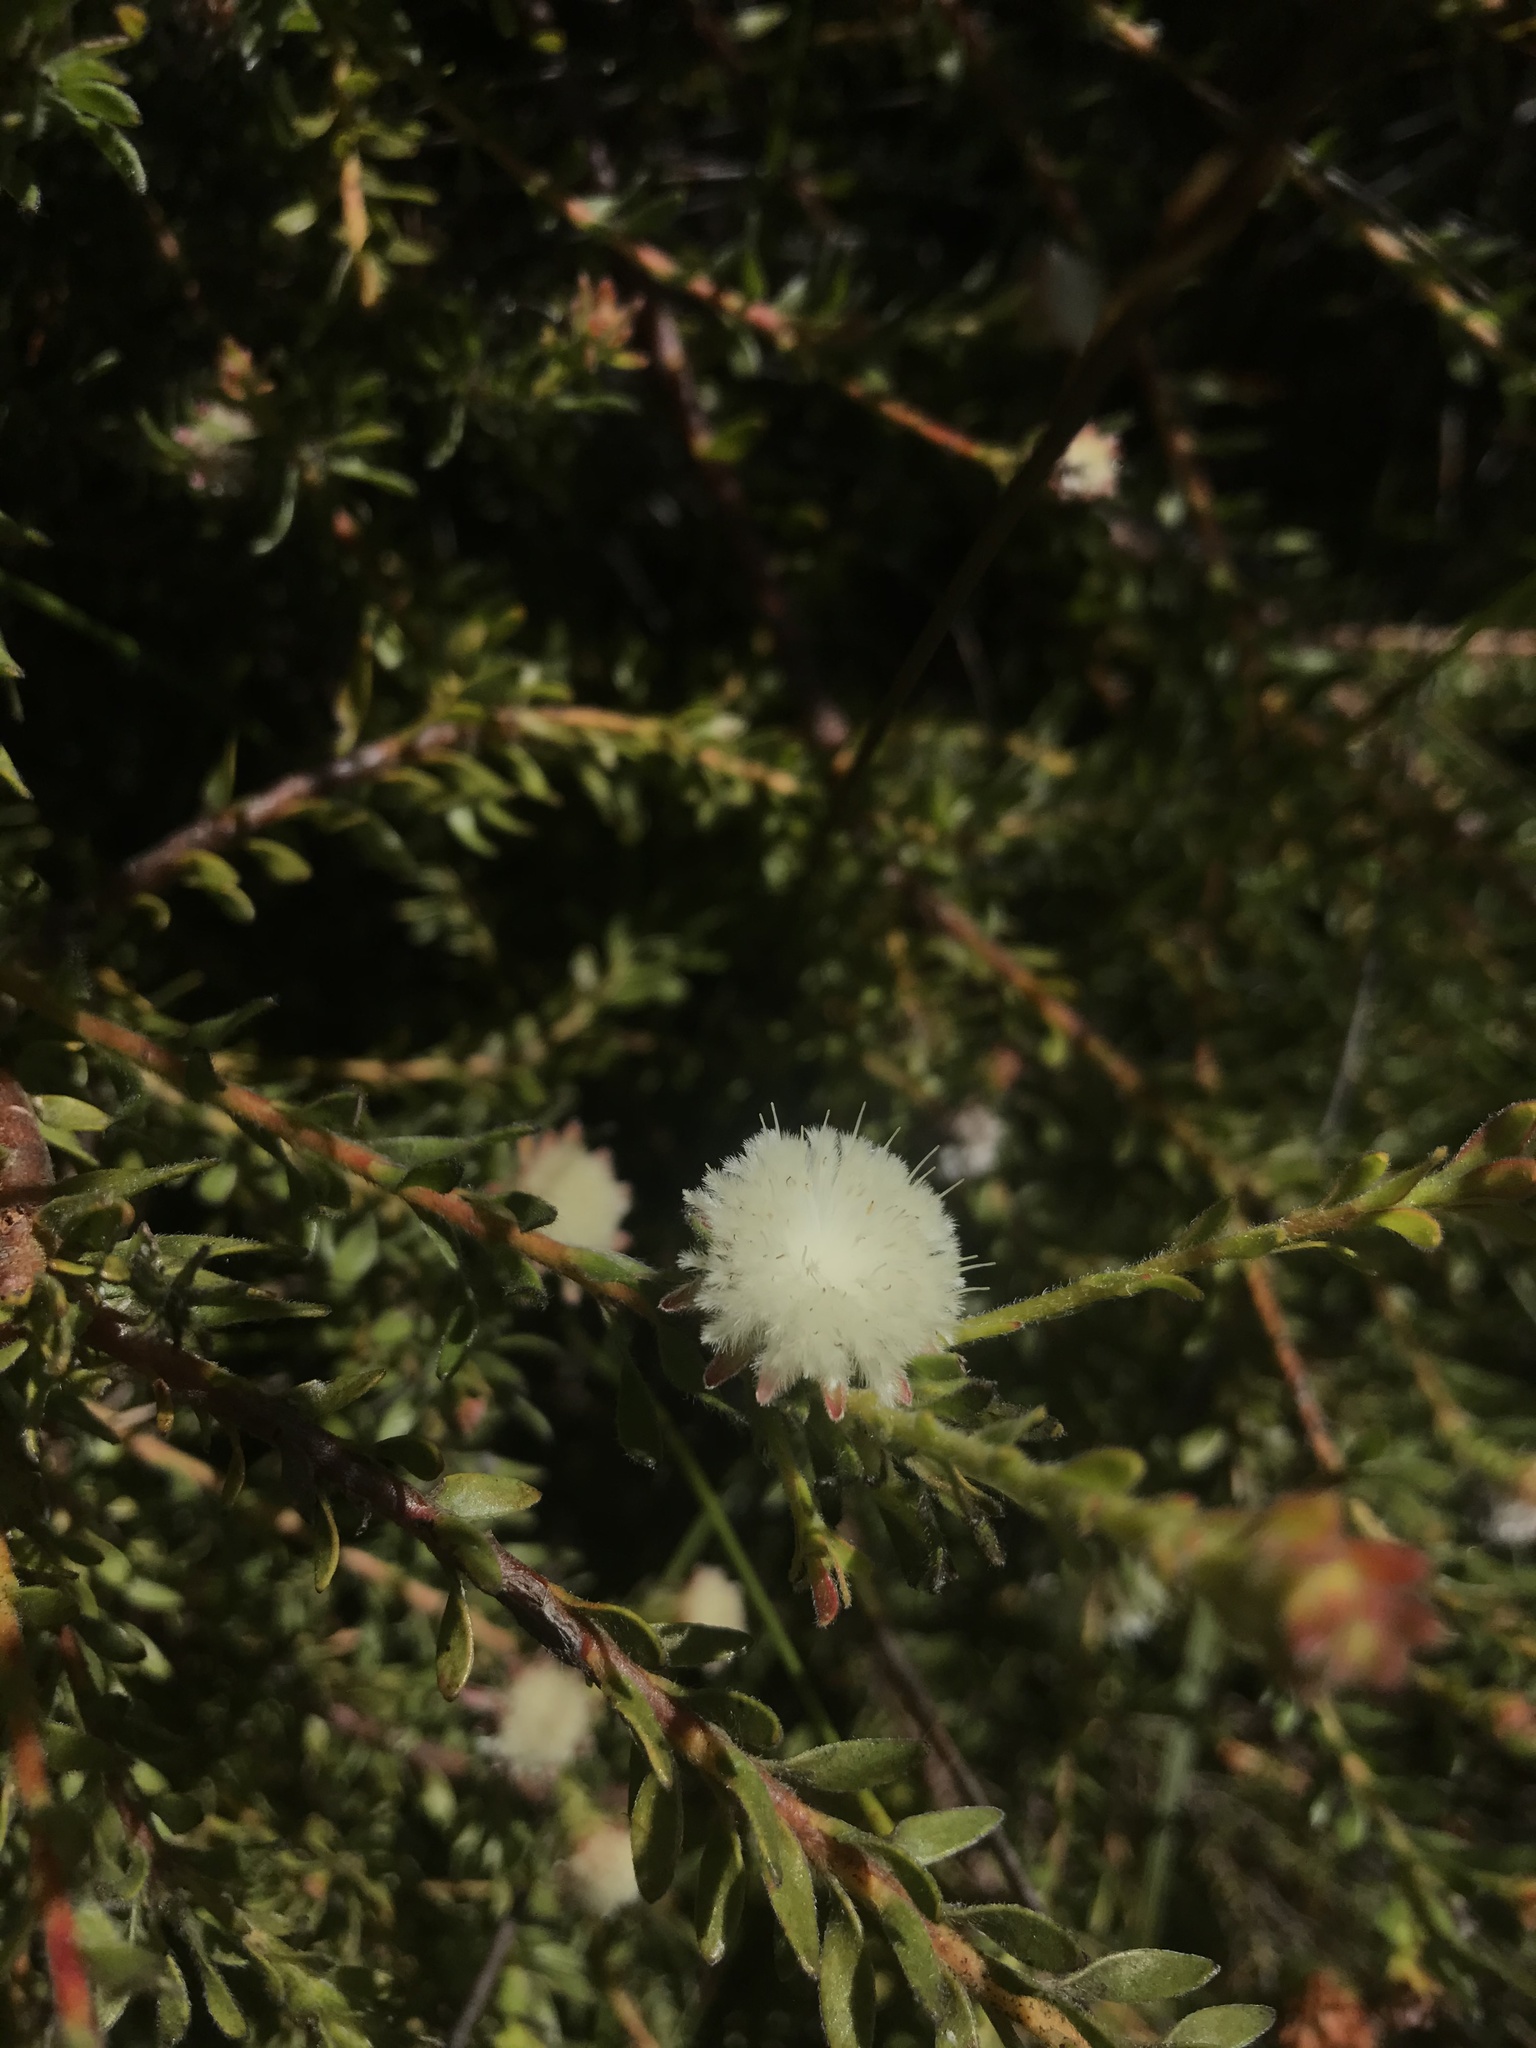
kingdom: Plantae
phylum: Tracheophyta
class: Magnoliopsida
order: Proteales
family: Proteaceae
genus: Diastella
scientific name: Diastella fraterna
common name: Palmiet silkypuff
